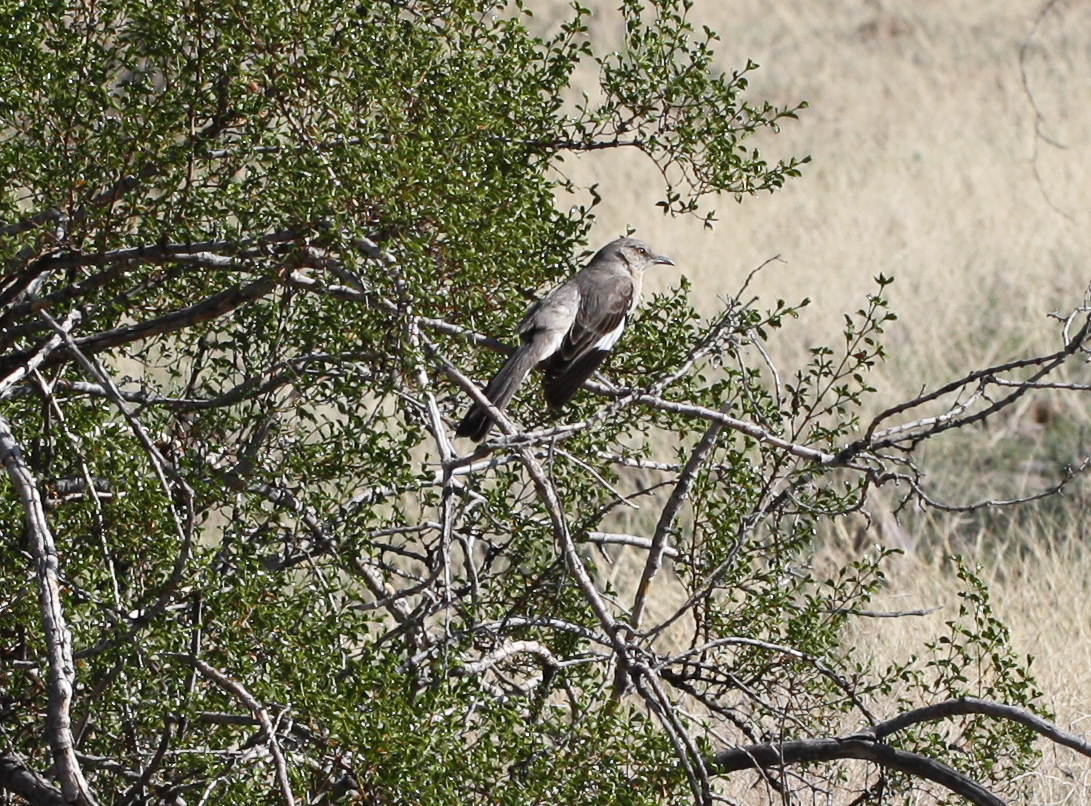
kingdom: Animalia
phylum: Chordata
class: Aves
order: Passeriformes
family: Mimidae
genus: Mimus
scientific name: Mimus polyglottos
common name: Northern mockingbird
